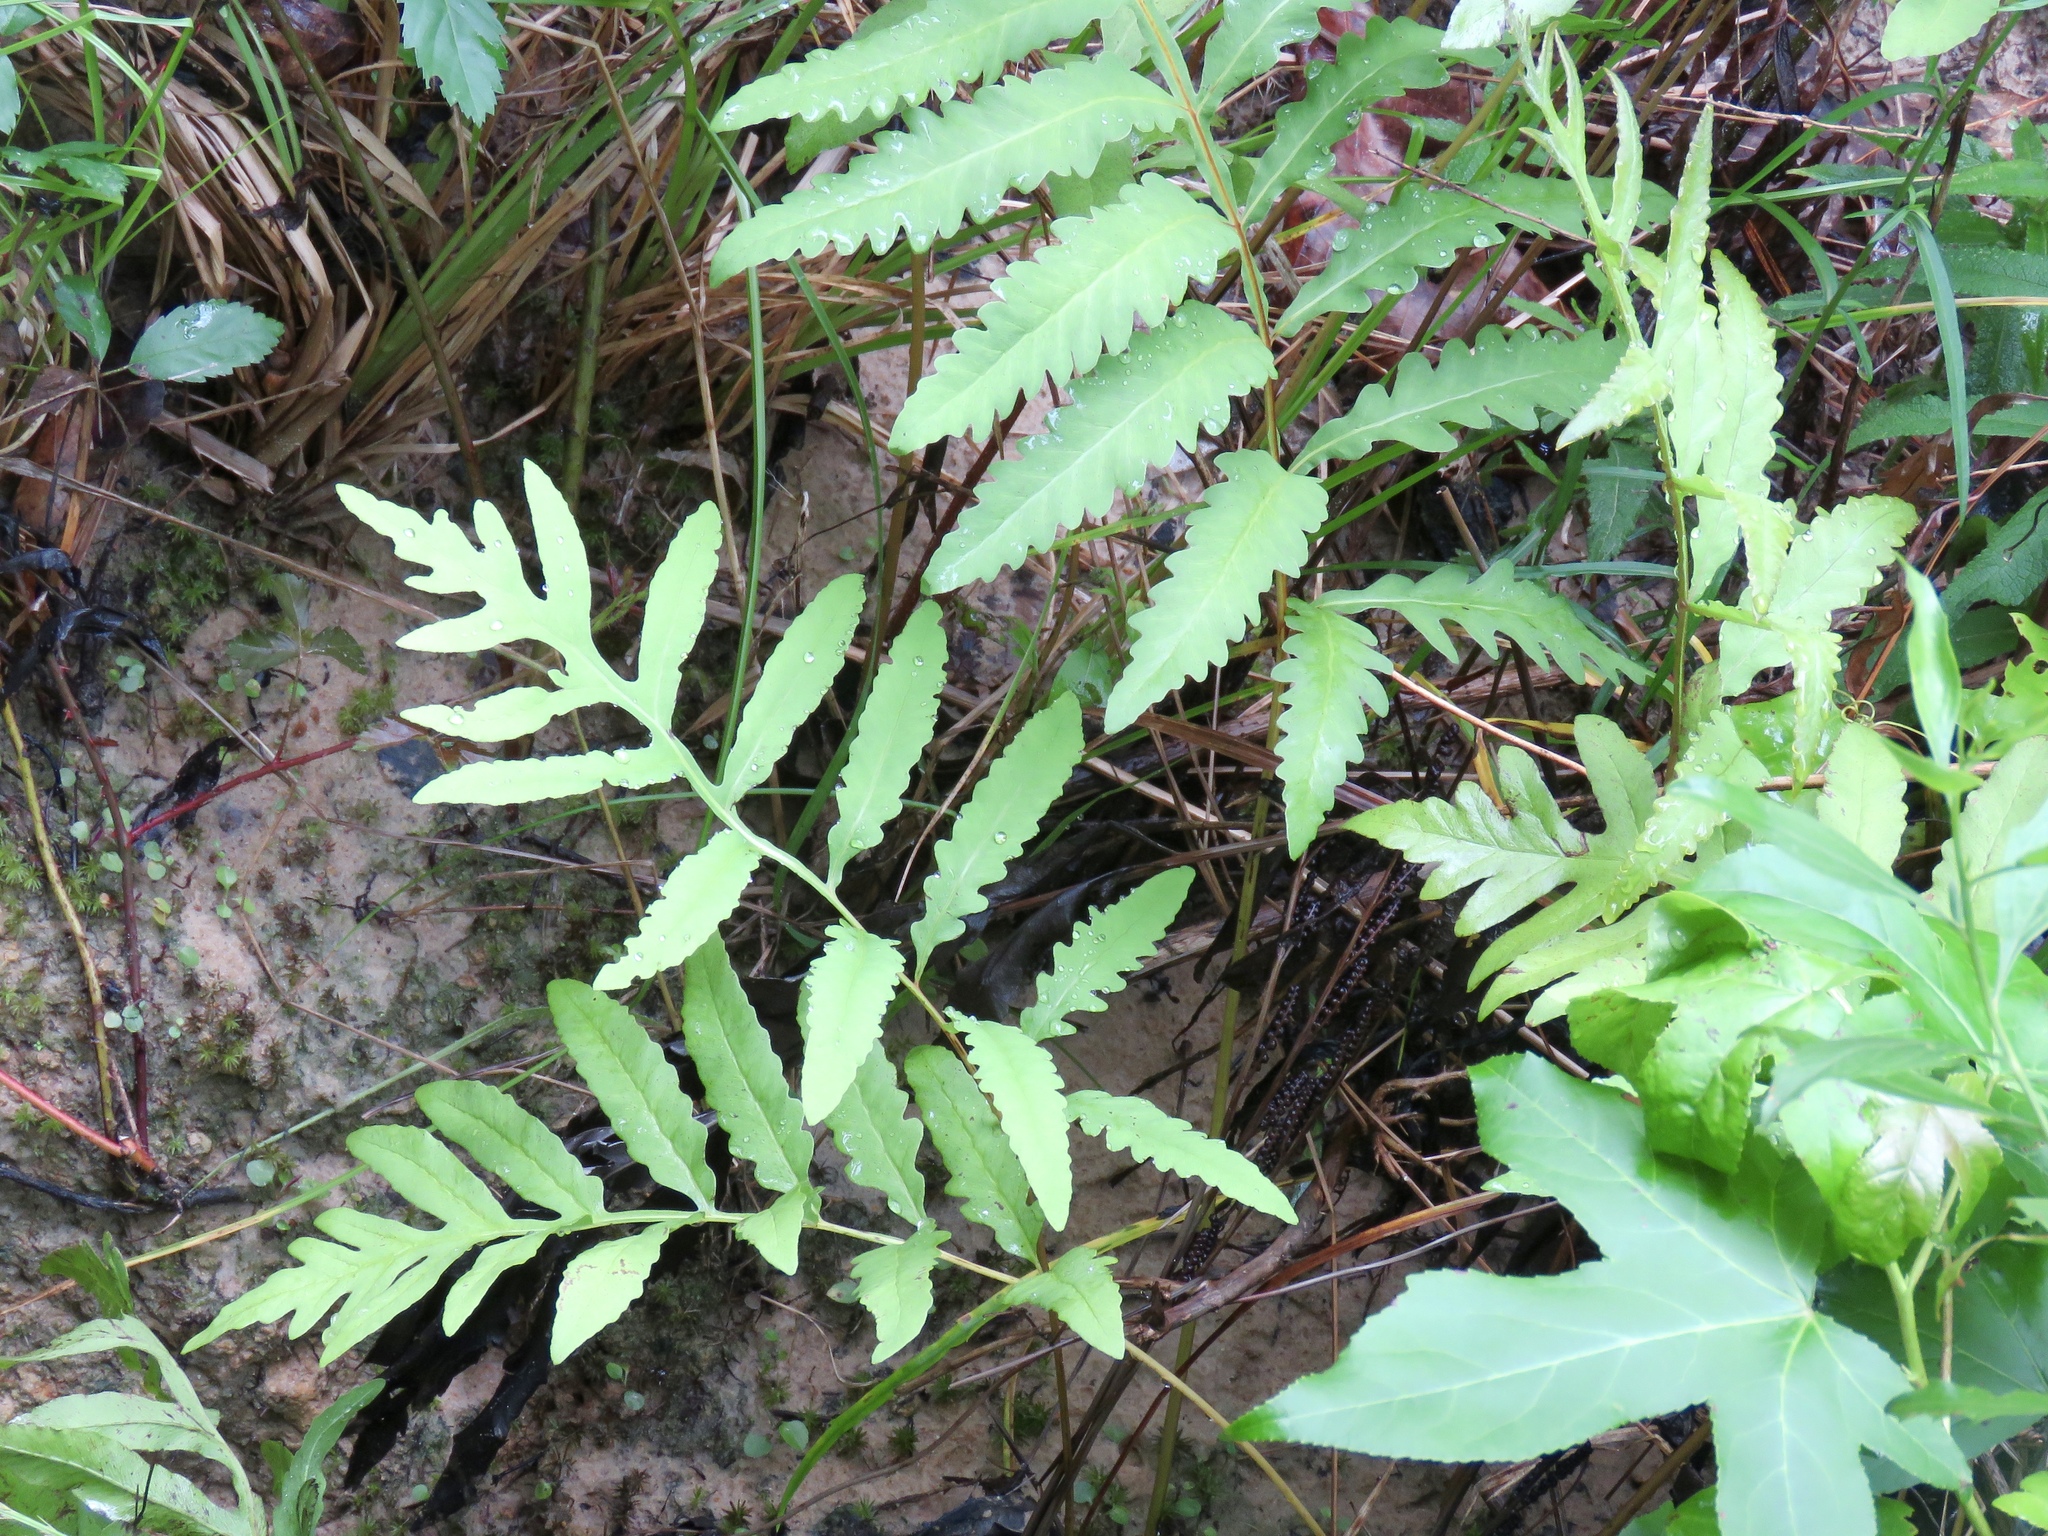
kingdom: Plantae
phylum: Tracheophyta
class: Polypodiopsida
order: Polypodiales
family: Onocleaceae
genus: Onoclea
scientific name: Onoclea sensibilis
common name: Sensitive fern
